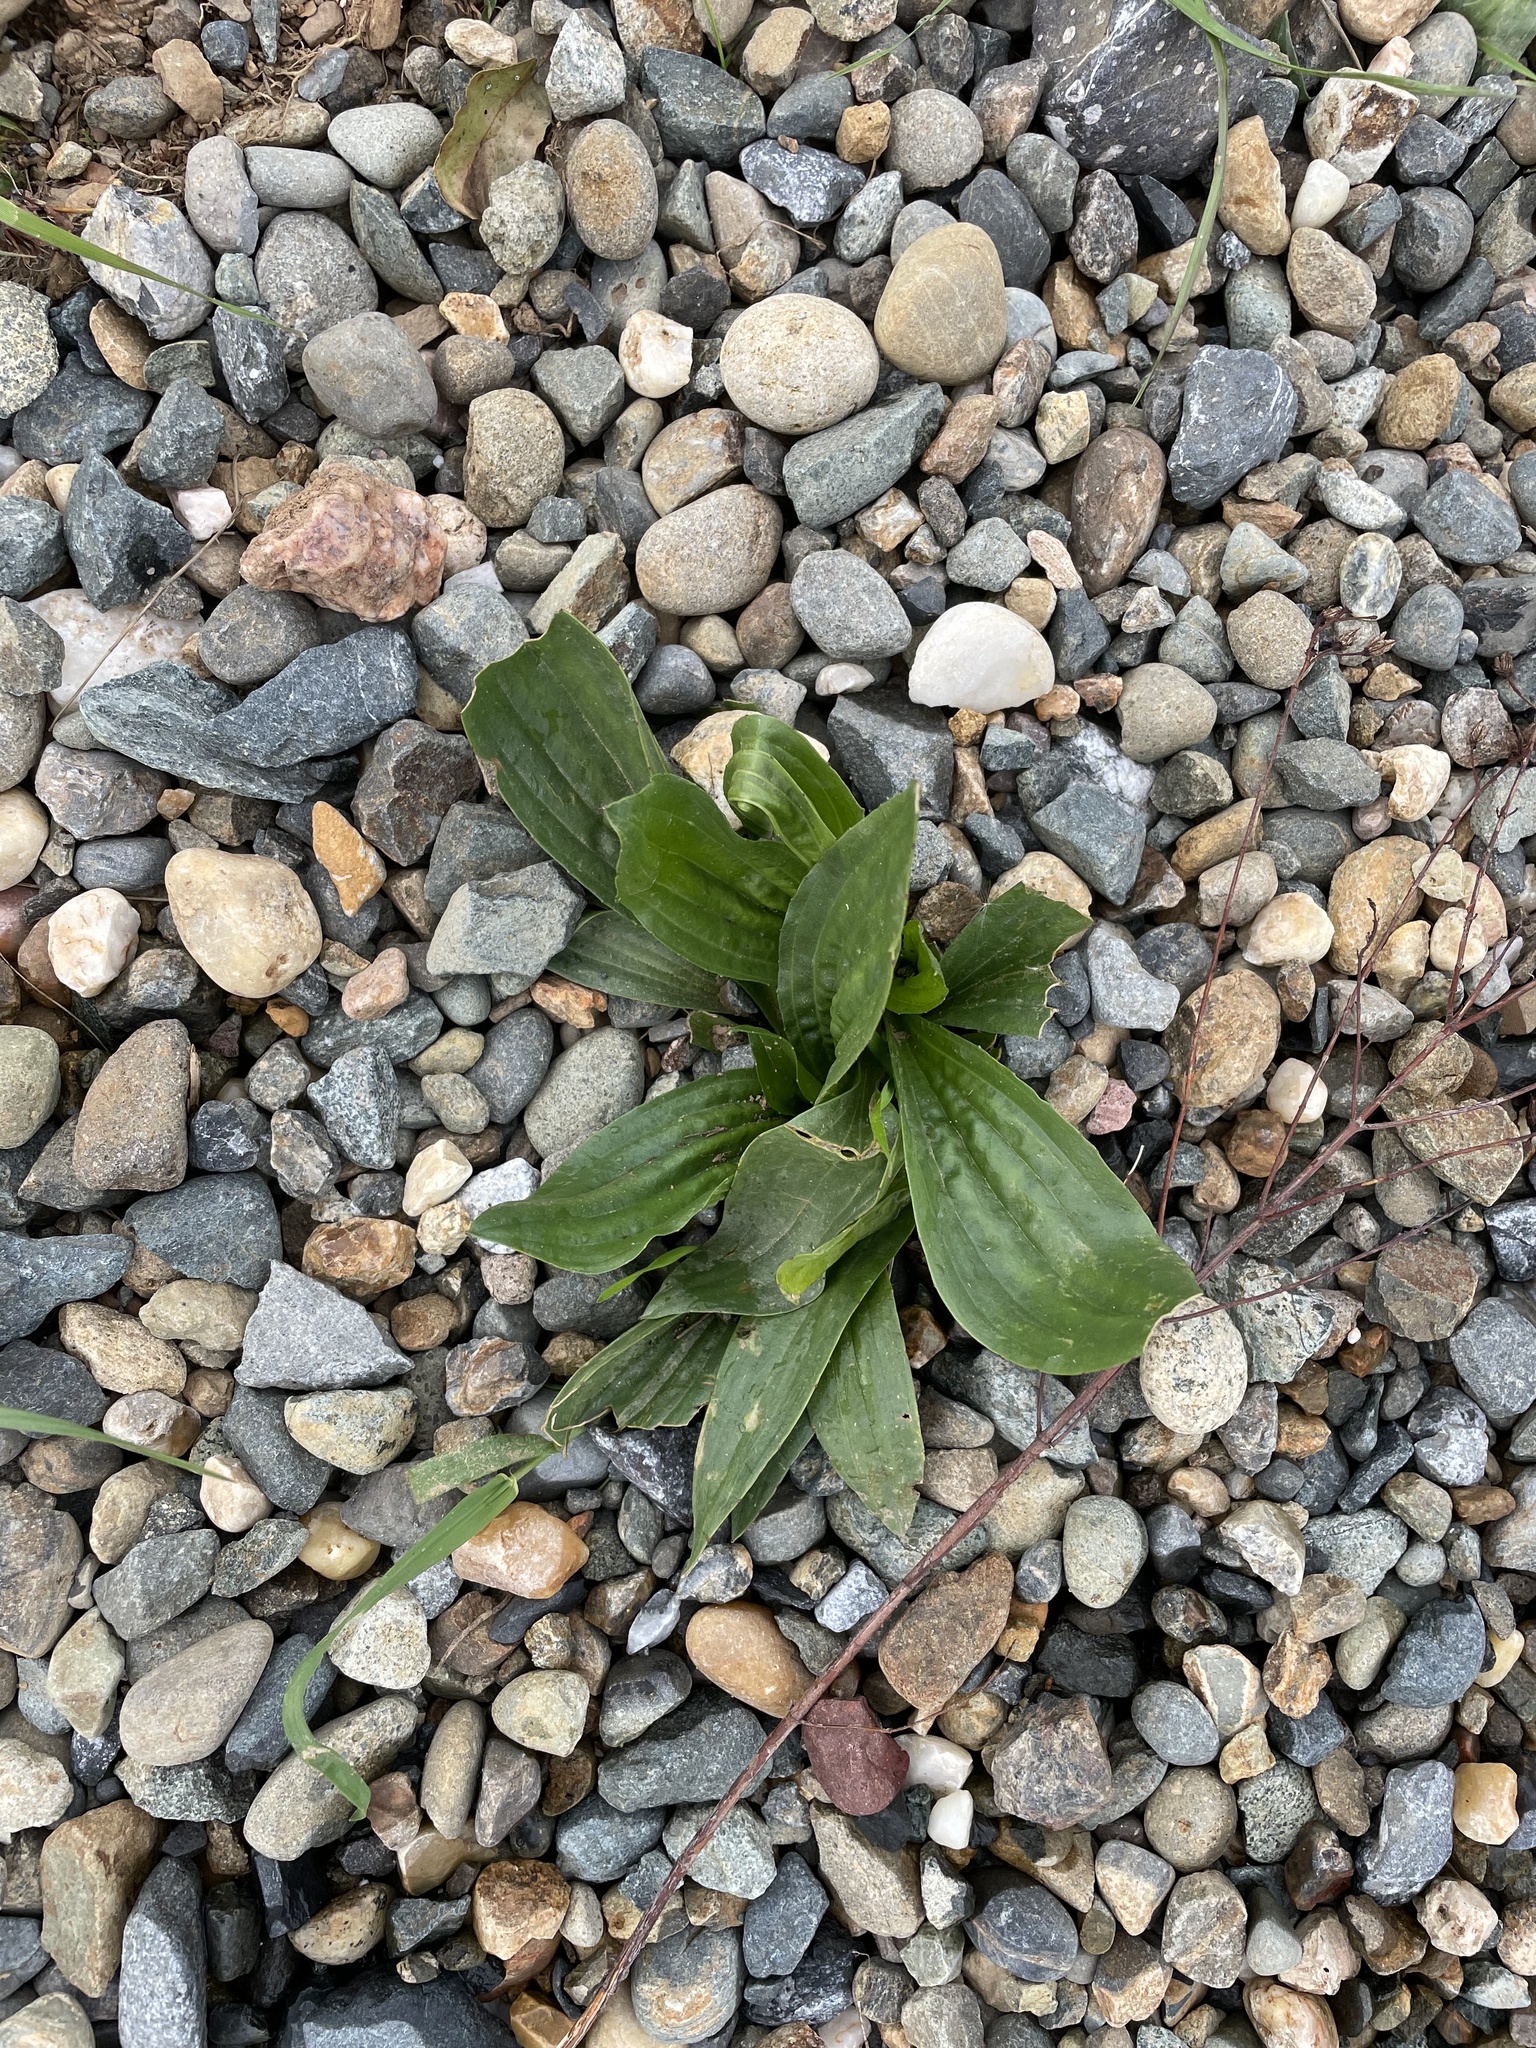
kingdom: Plantae
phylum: Tracheophyta
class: Magnoliopsida
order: Lamiales
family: Plantaginaceae
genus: Plantago
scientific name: Plantago lanceolata
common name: Ribwort plantain
